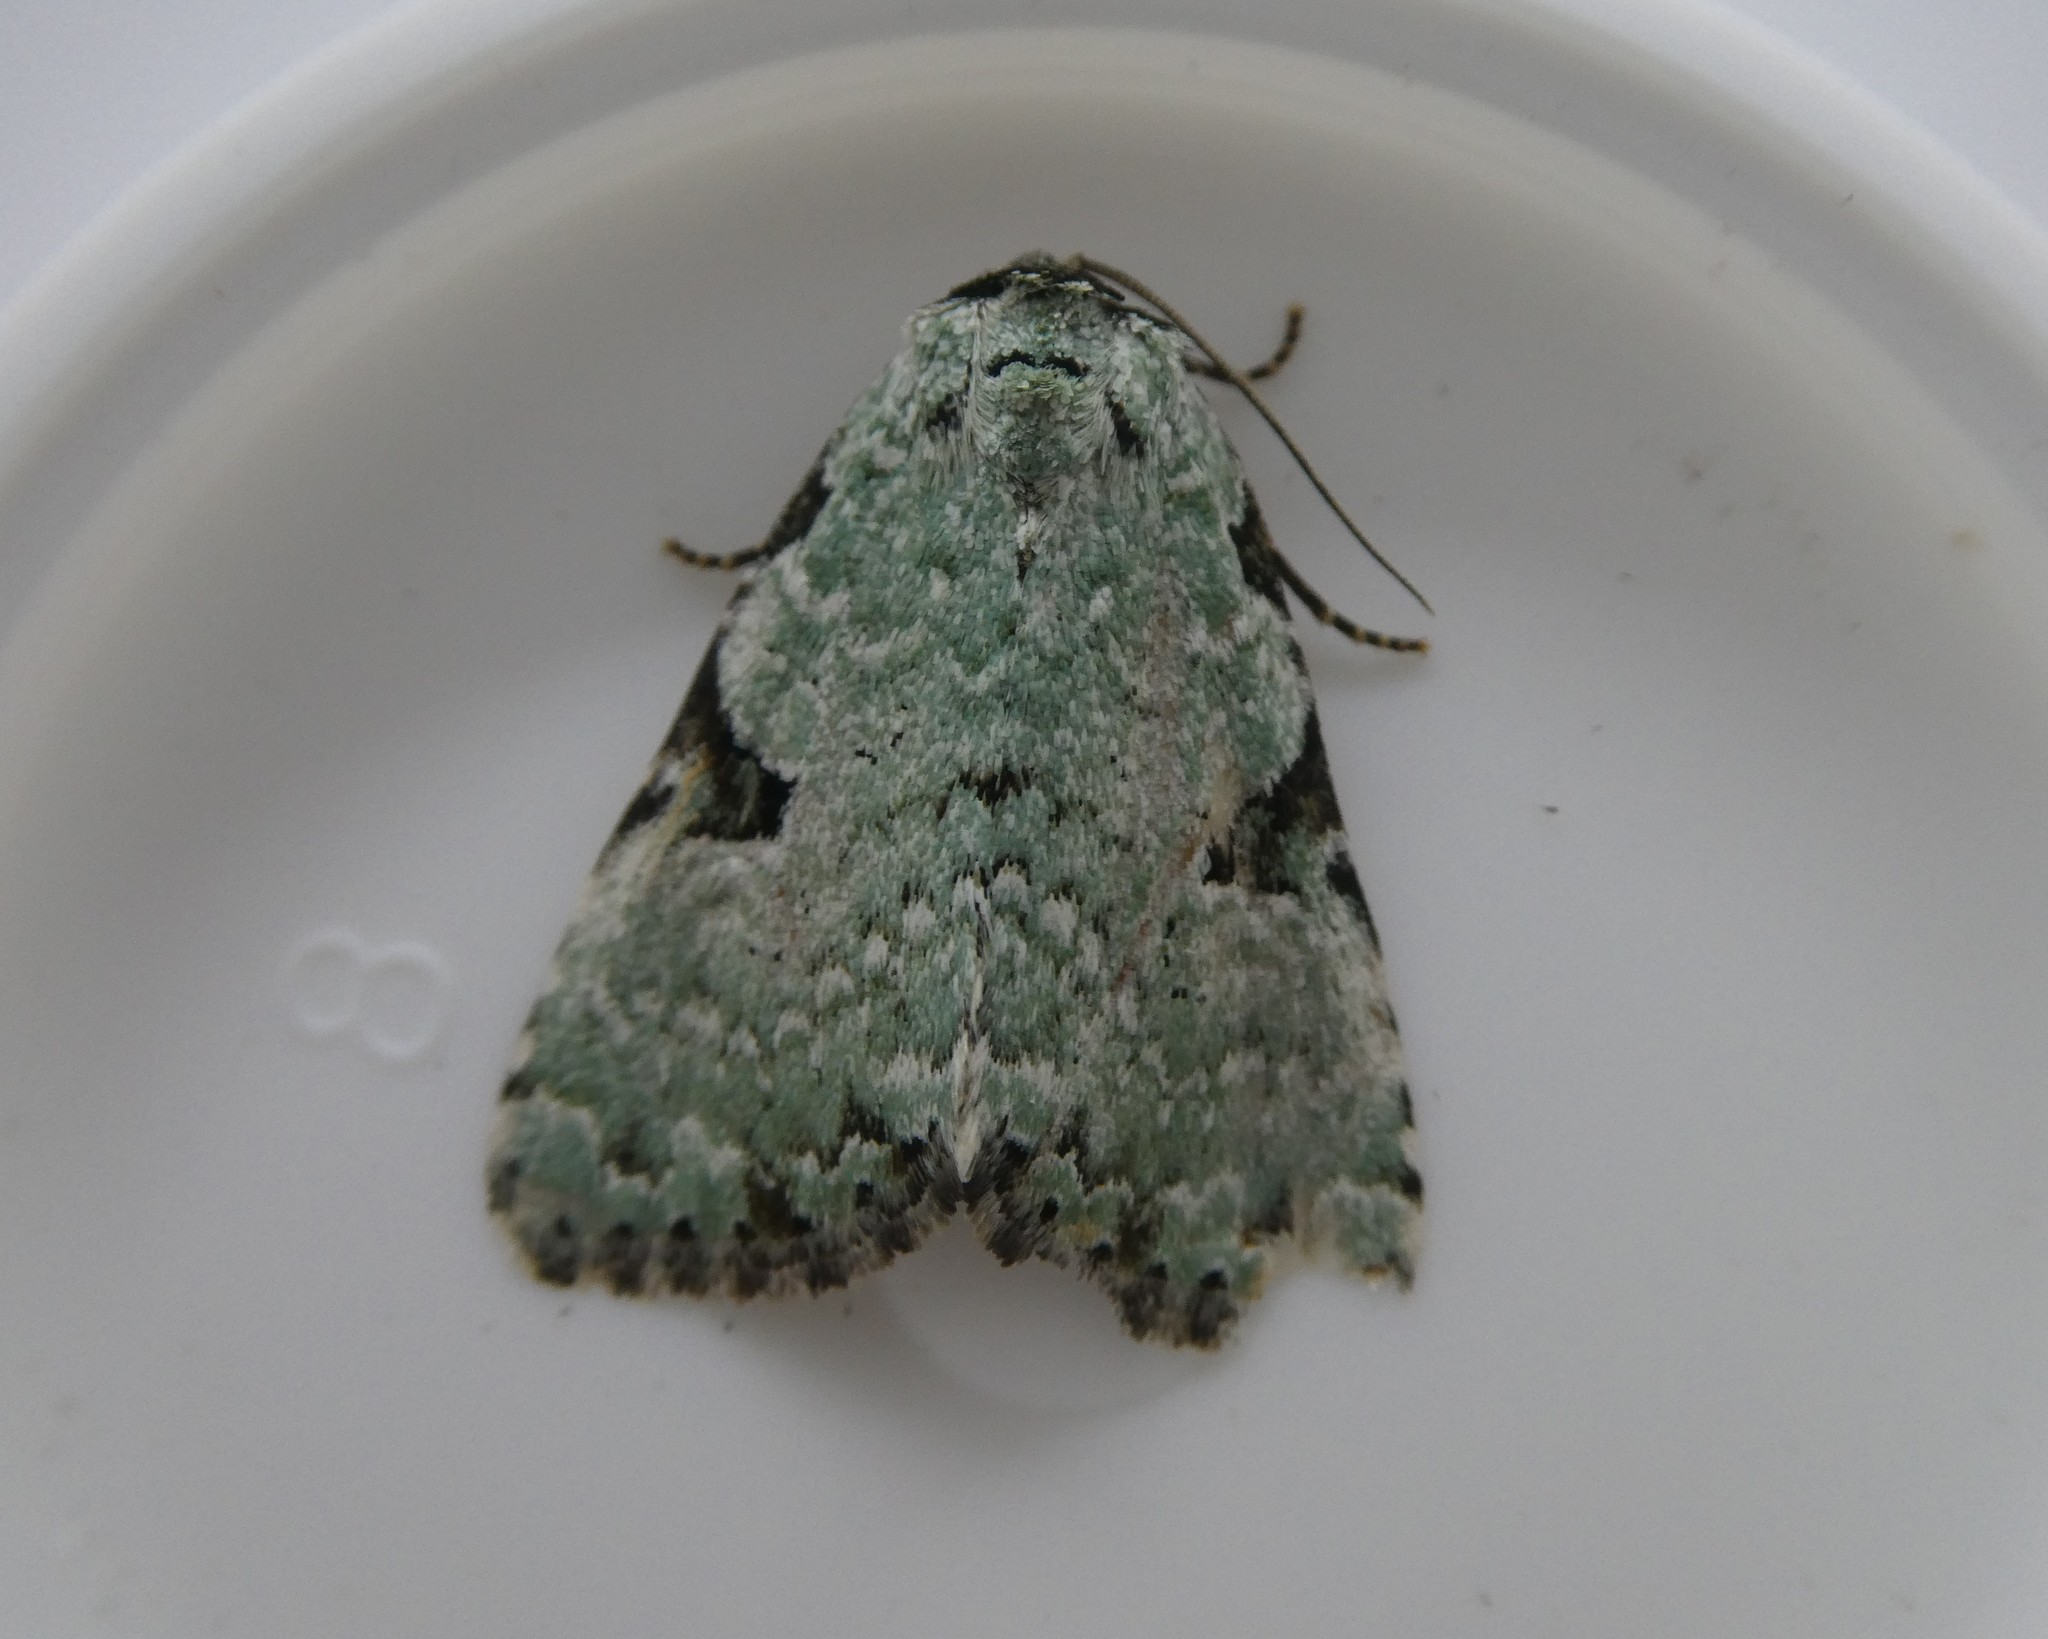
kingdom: Animalia
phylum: Arthropoda
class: Insecta
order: Lepidoptera
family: Noctuidae
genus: Leuconycta
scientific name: Leuconycta diphteroides
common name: Green leuconycta moth
